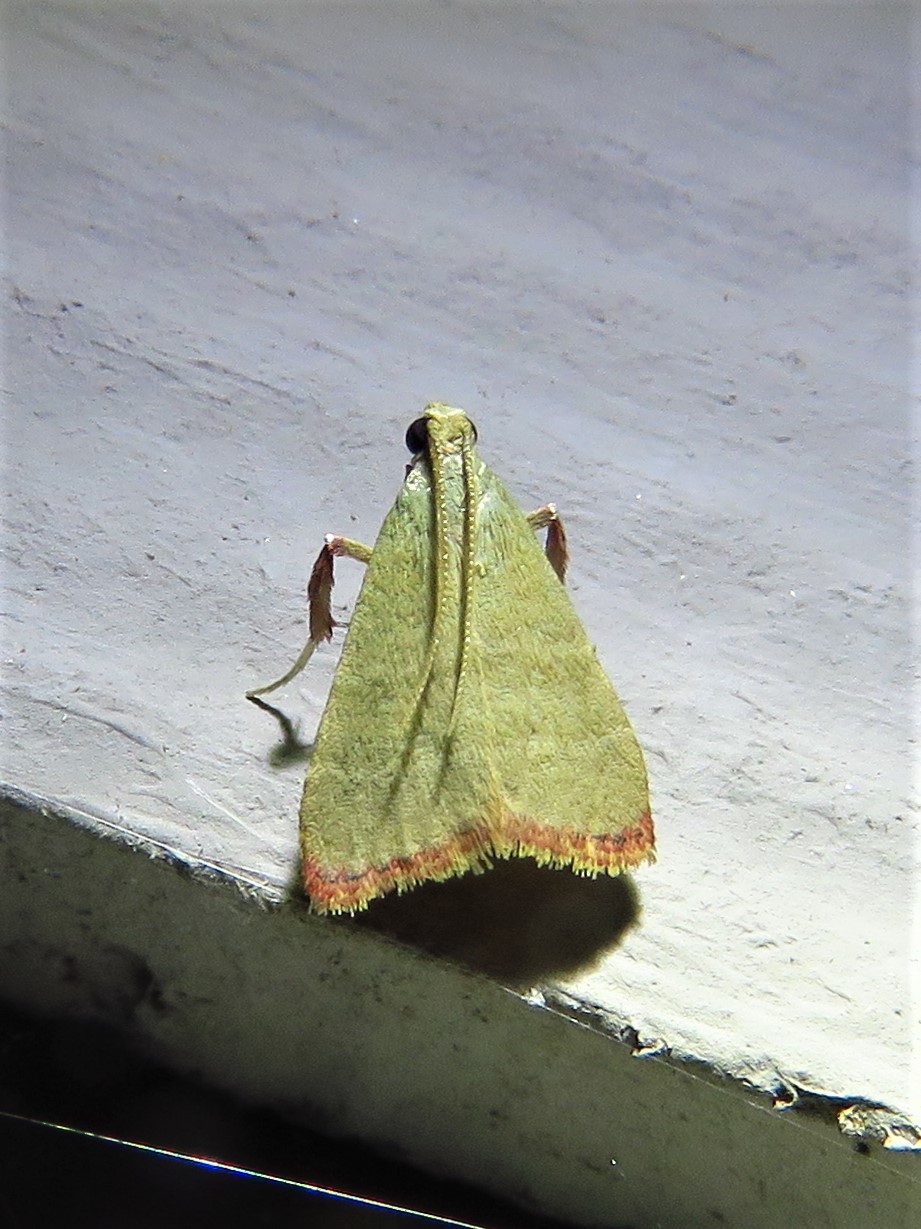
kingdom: Animalia
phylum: Arthropoda
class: Insecta
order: Lepidoptera
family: Pyralidae
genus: Arta
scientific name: Arta olivalis
